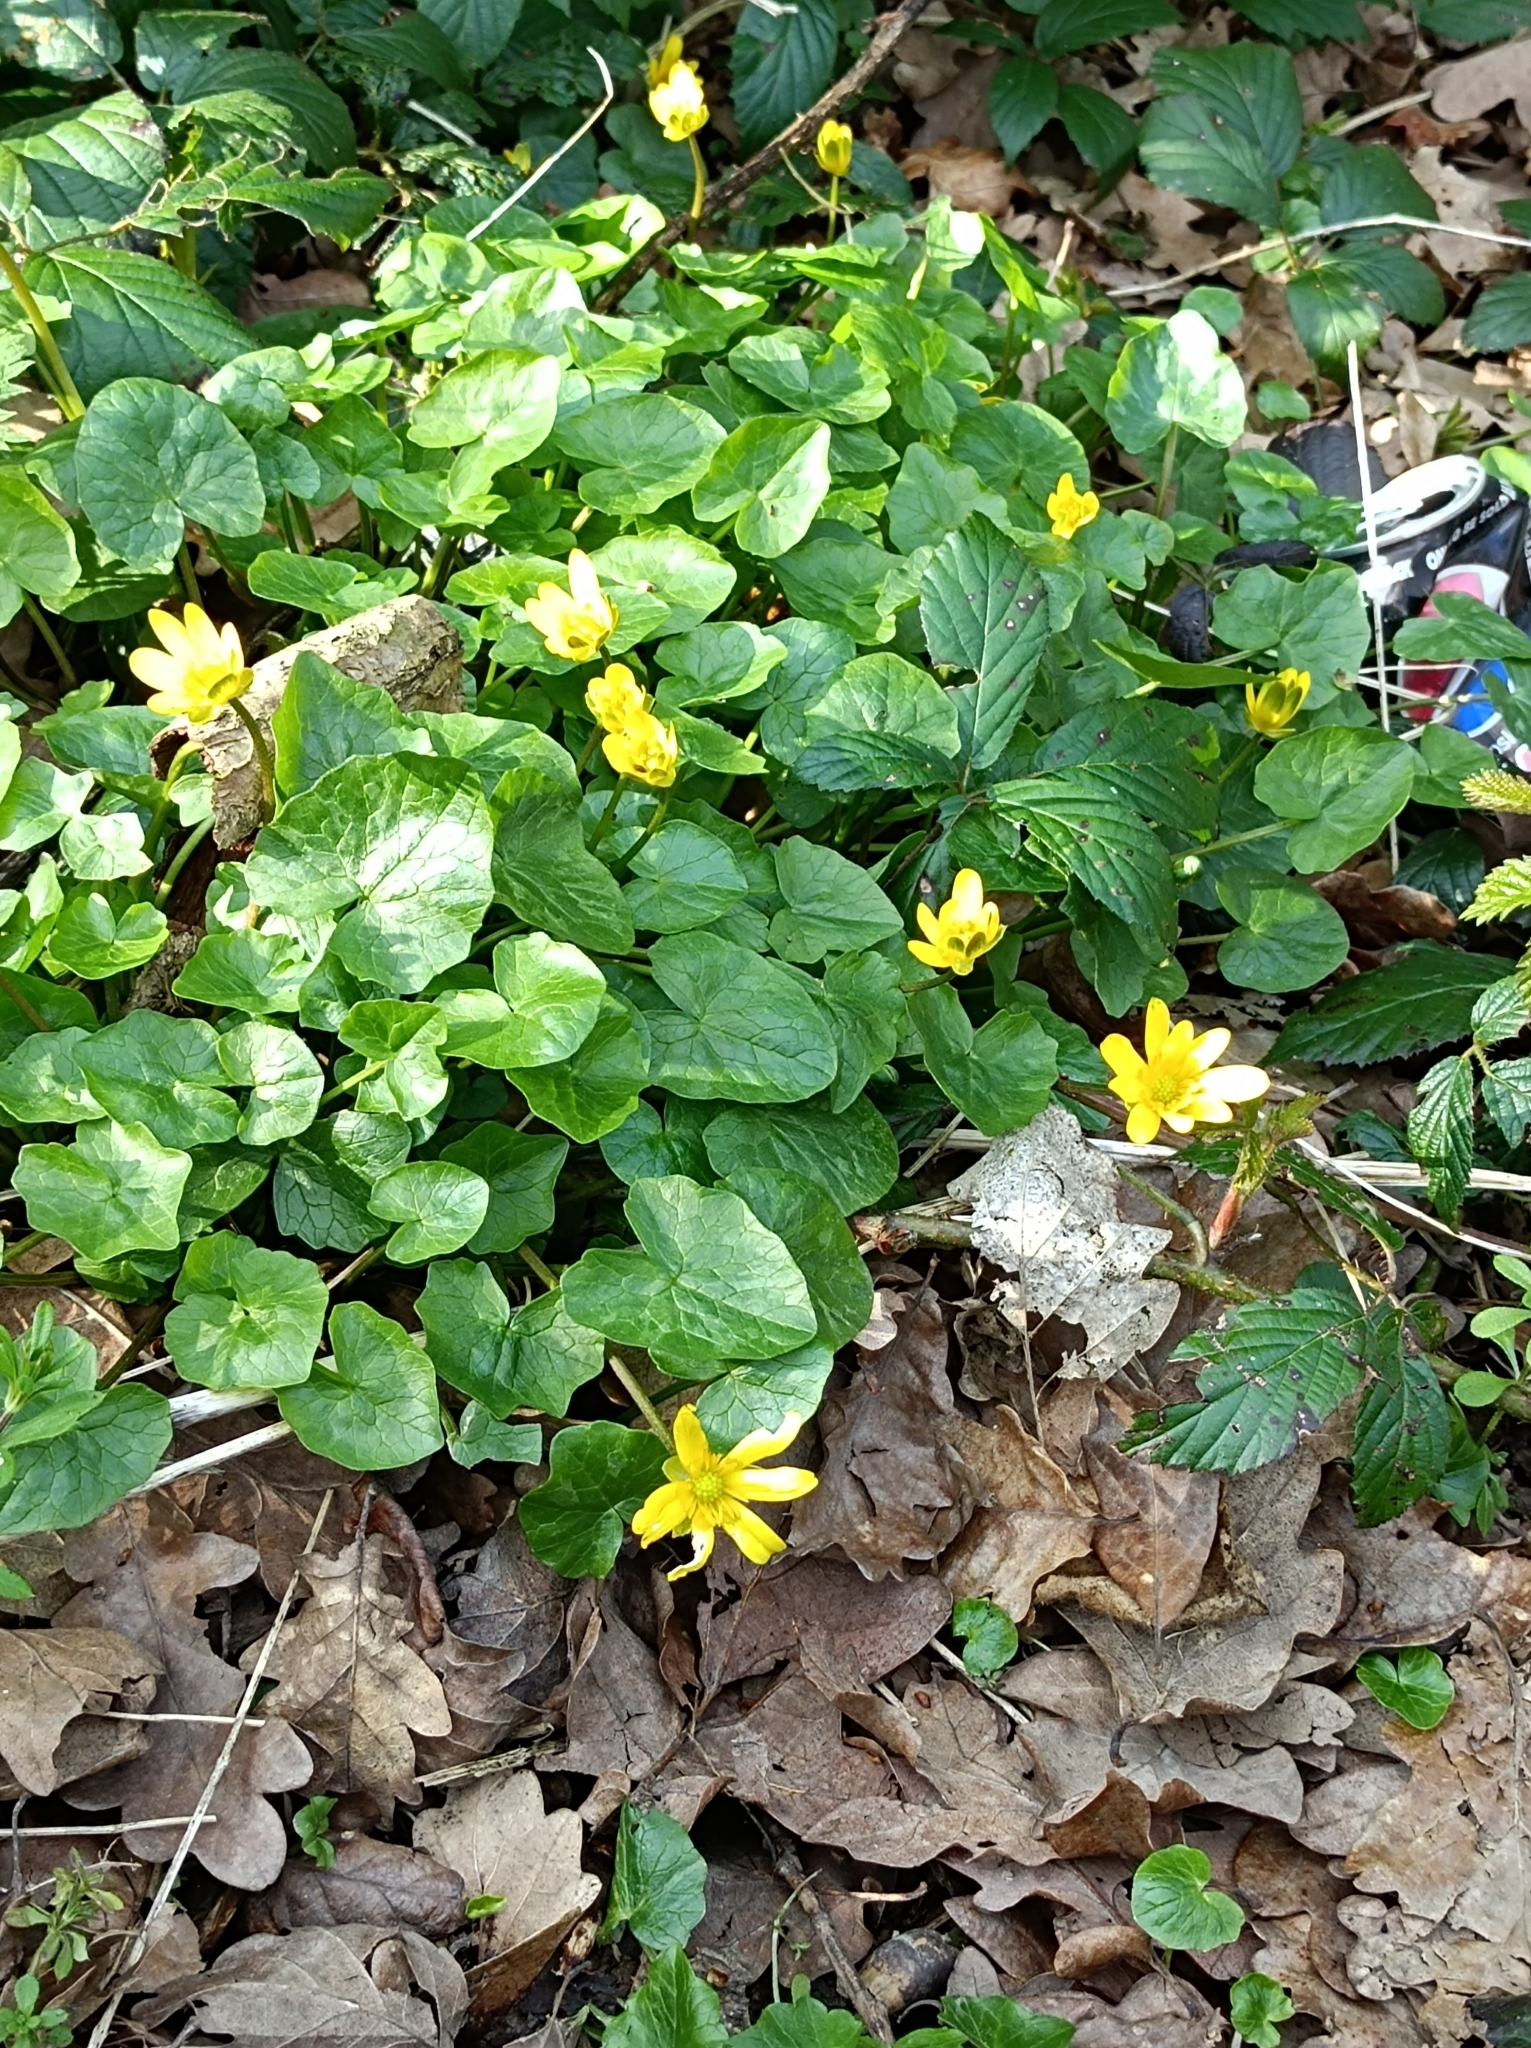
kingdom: Plantae
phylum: Tracheophyta
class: Magnoliopsida
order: Ranunculales
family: Ranunculaceae
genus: Ficaria
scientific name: Ficaria verna
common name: Lesser celandine
